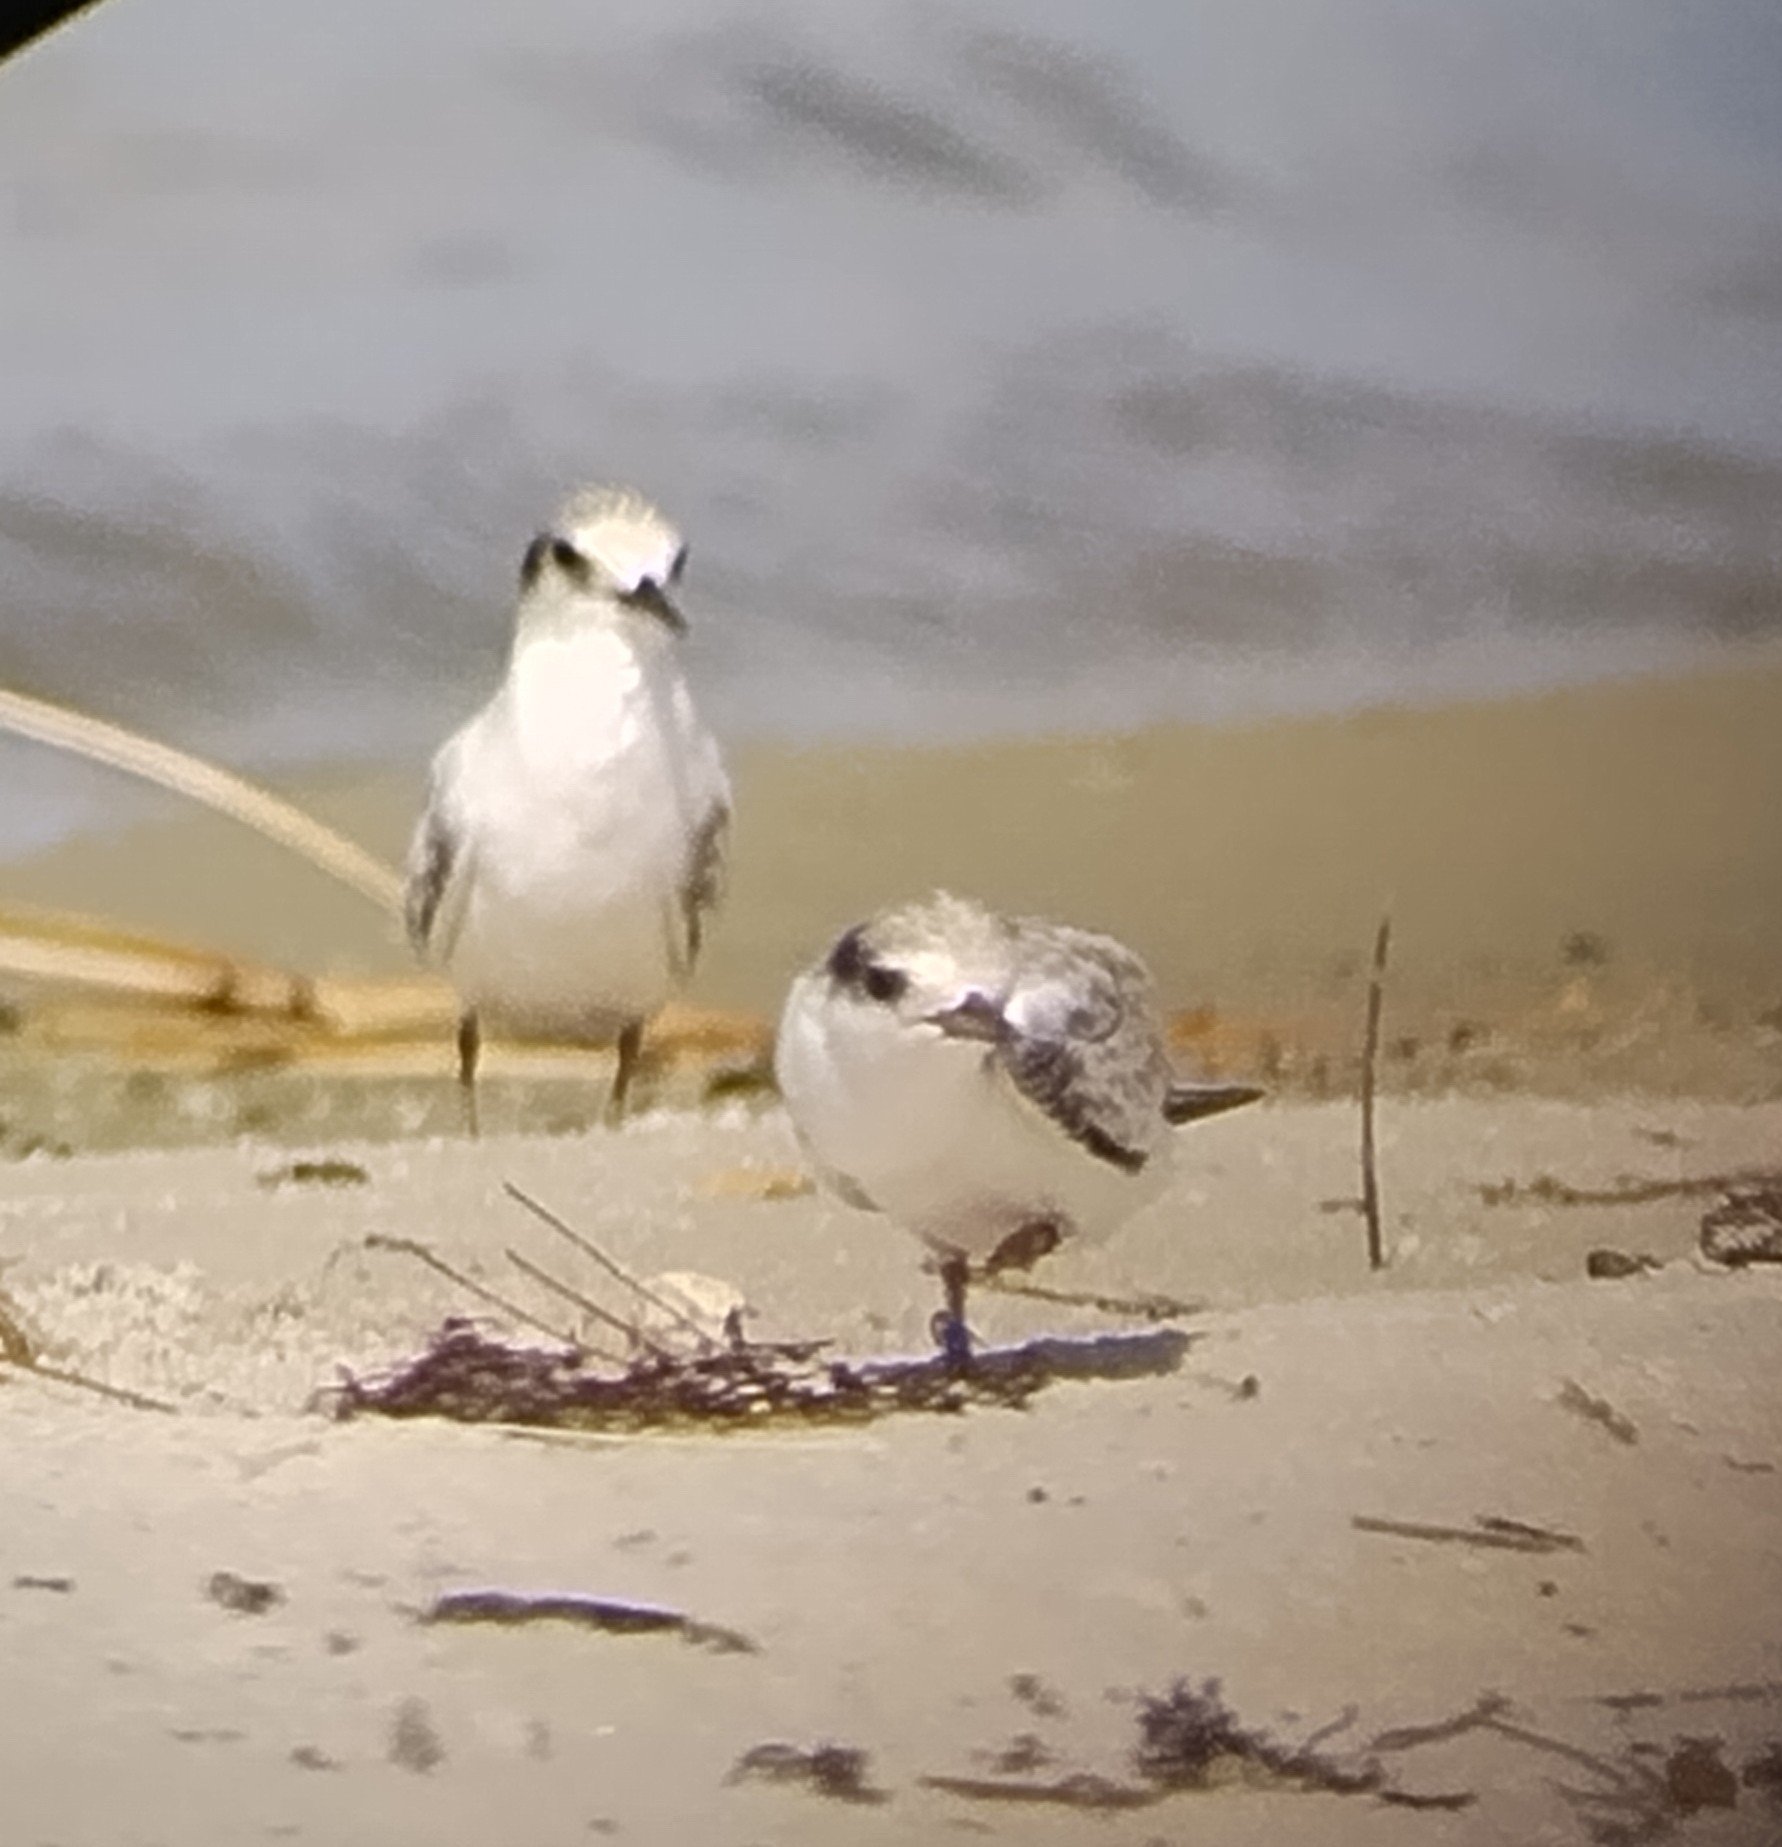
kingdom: Animalia
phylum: Chordata
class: Aves
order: Charadriiformes
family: Laridae
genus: Sternula
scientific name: Sternula antillarum
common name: Least tern
